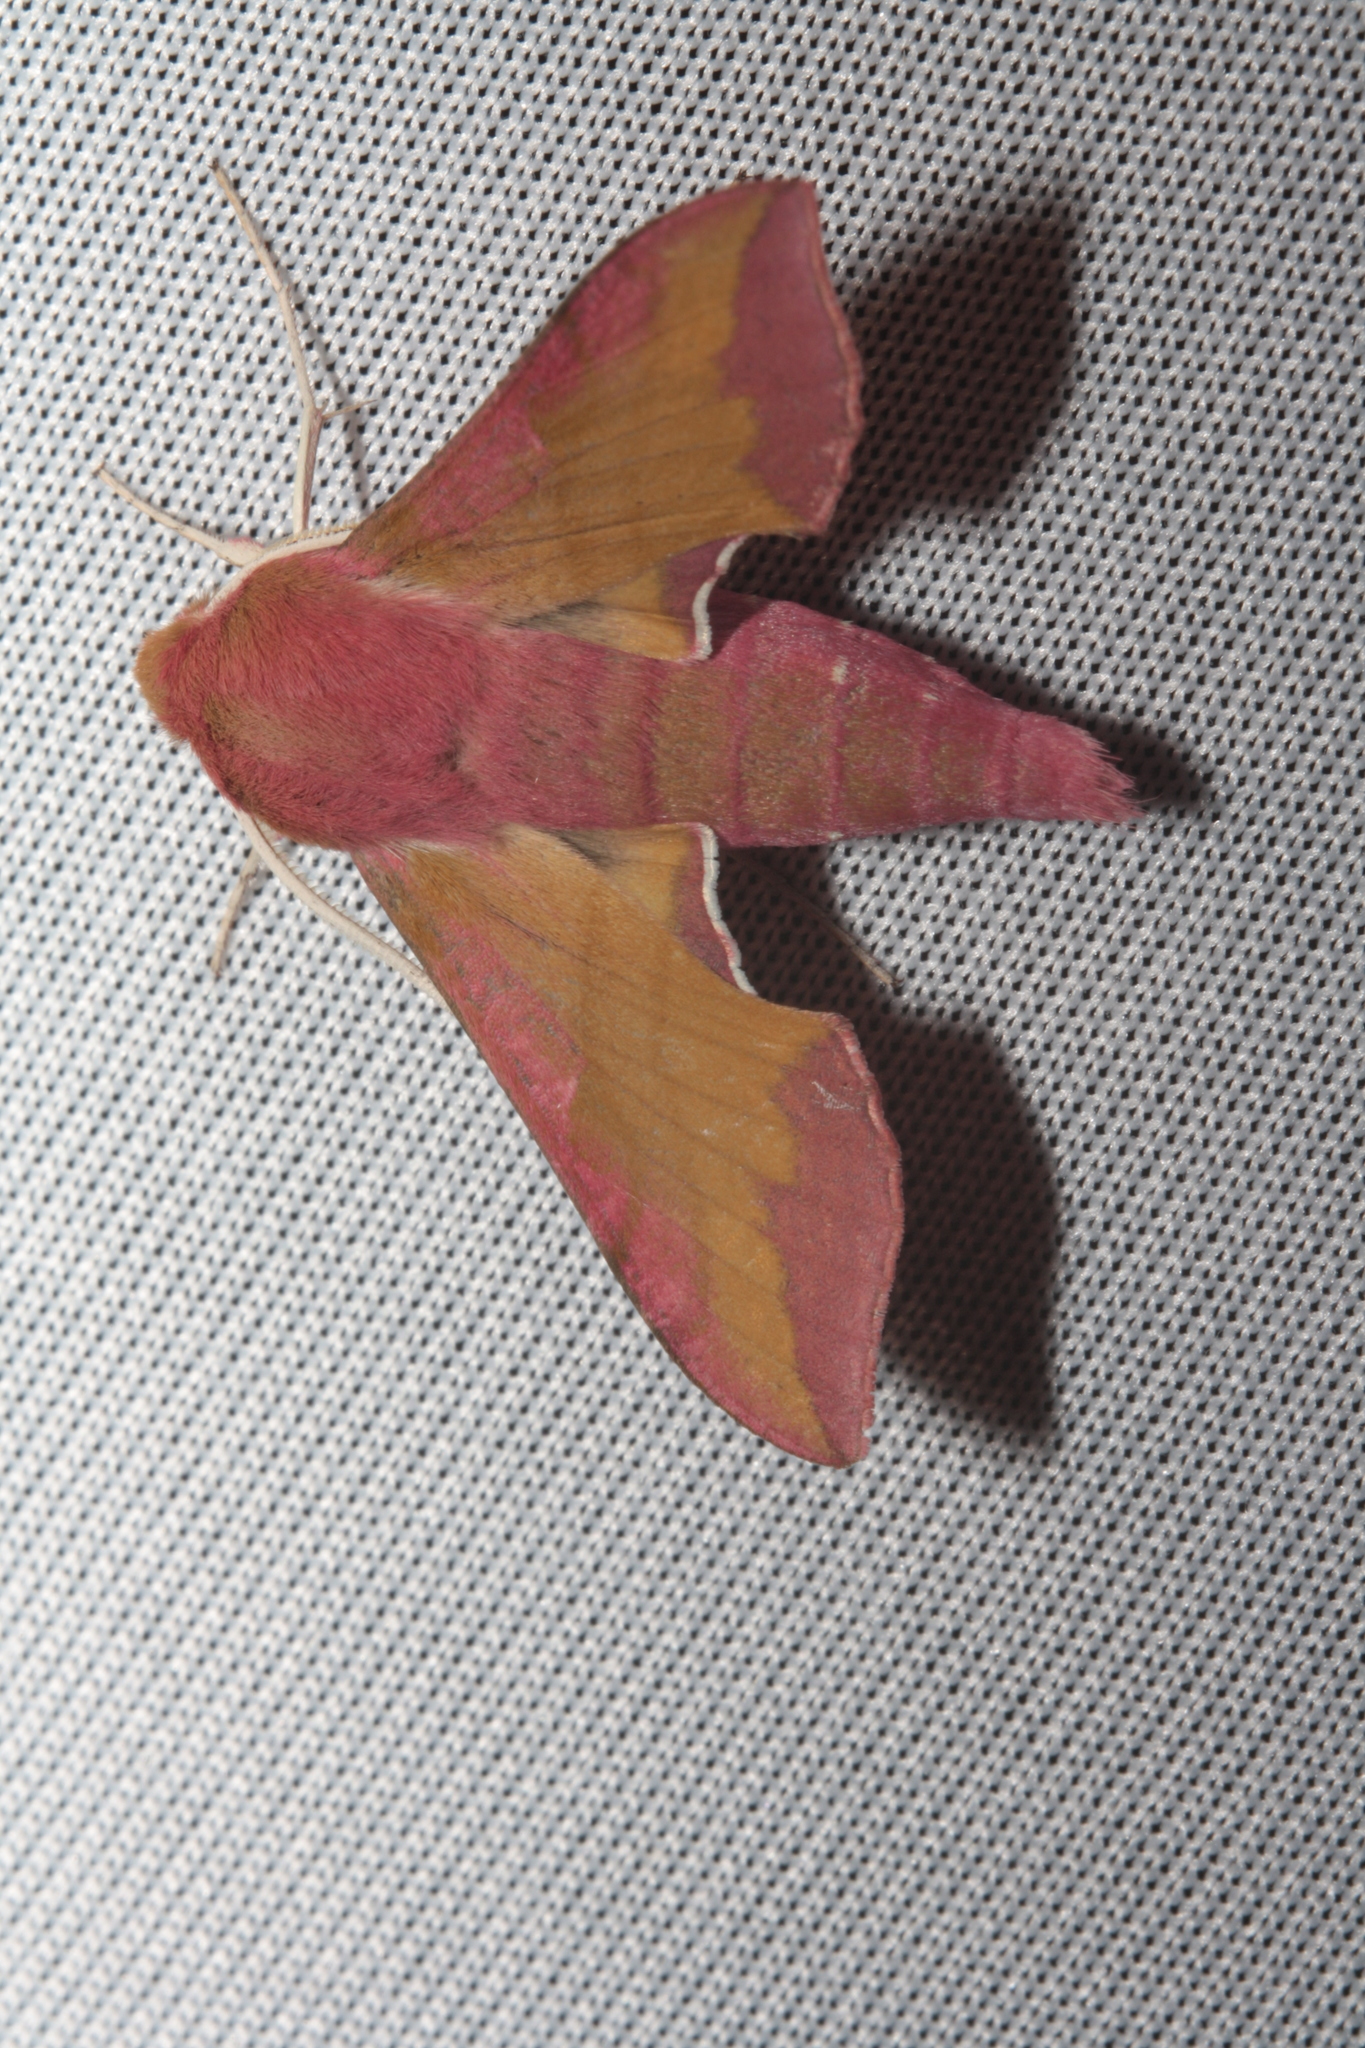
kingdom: Animalia
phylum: Arthropoda
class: Insecta
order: Lepidoptera
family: Sphingidae
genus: Deilephila
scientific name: Deilephila porcellus
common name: Small elephant hawk-moth
